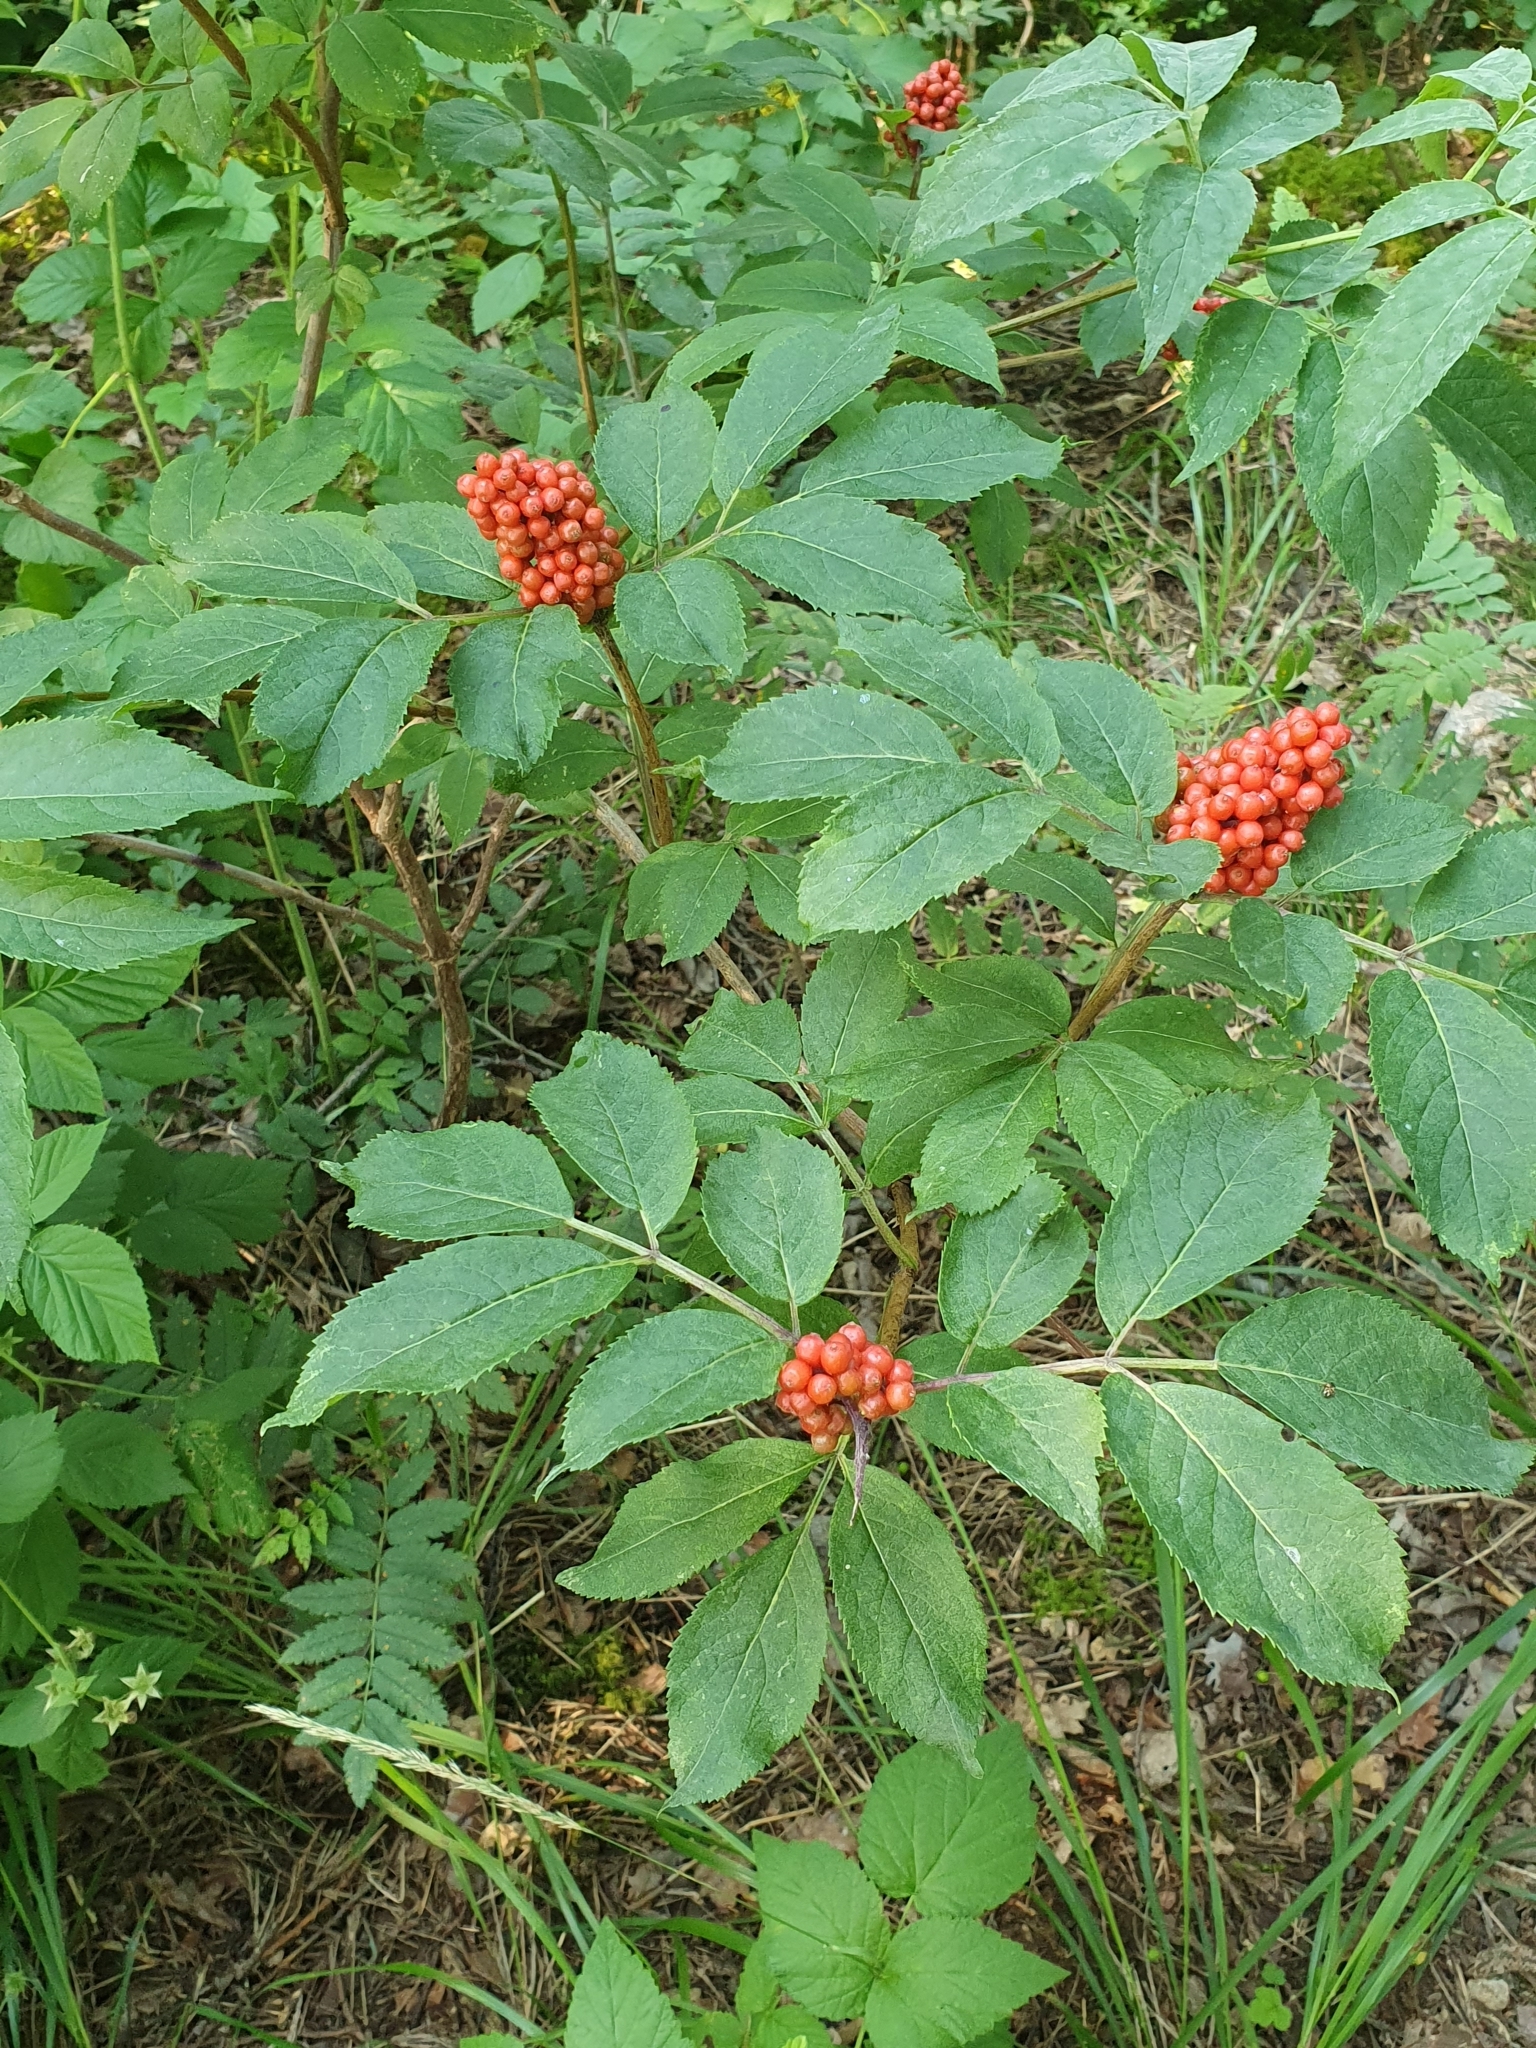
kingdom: Plantae
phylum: Tracheophyta
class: Magnoliopsida
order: Dipsacales
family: Viburnaceae
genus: Sambucus
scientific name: Sambucus racemosa
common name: Red-berried elder
